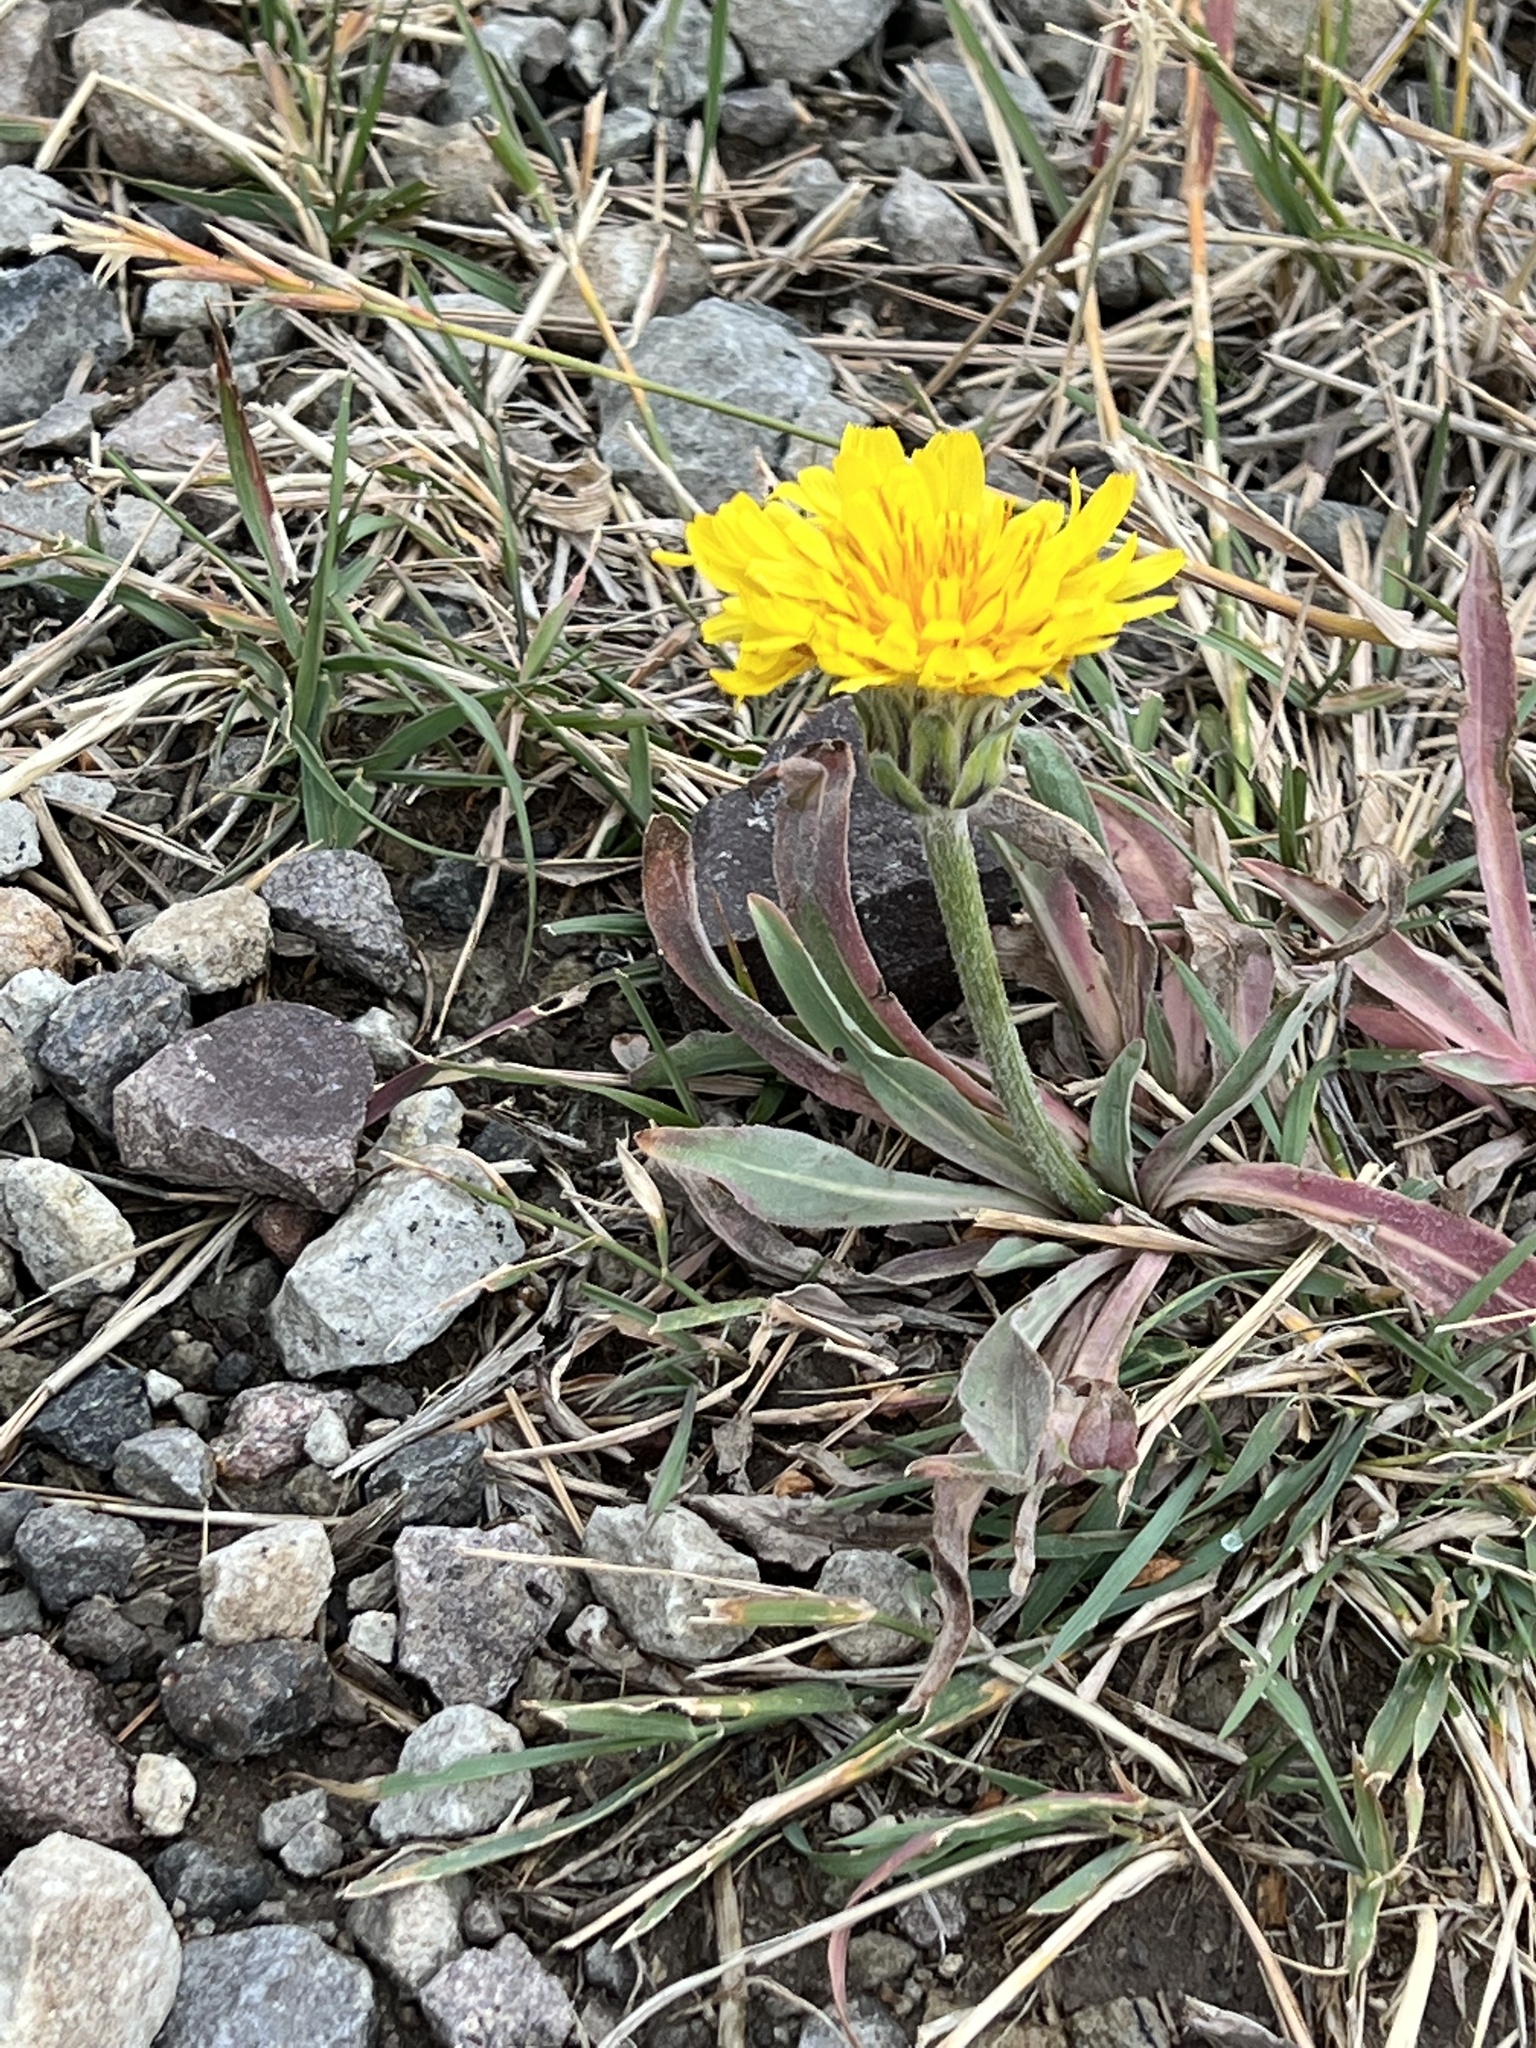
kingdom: Plantae
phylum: Tracheophyta
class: Magnoliopsida
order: Asterales
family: Asteraceae
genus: Agoseris
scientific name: Agoseris glauca
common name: Prairie agoseris
